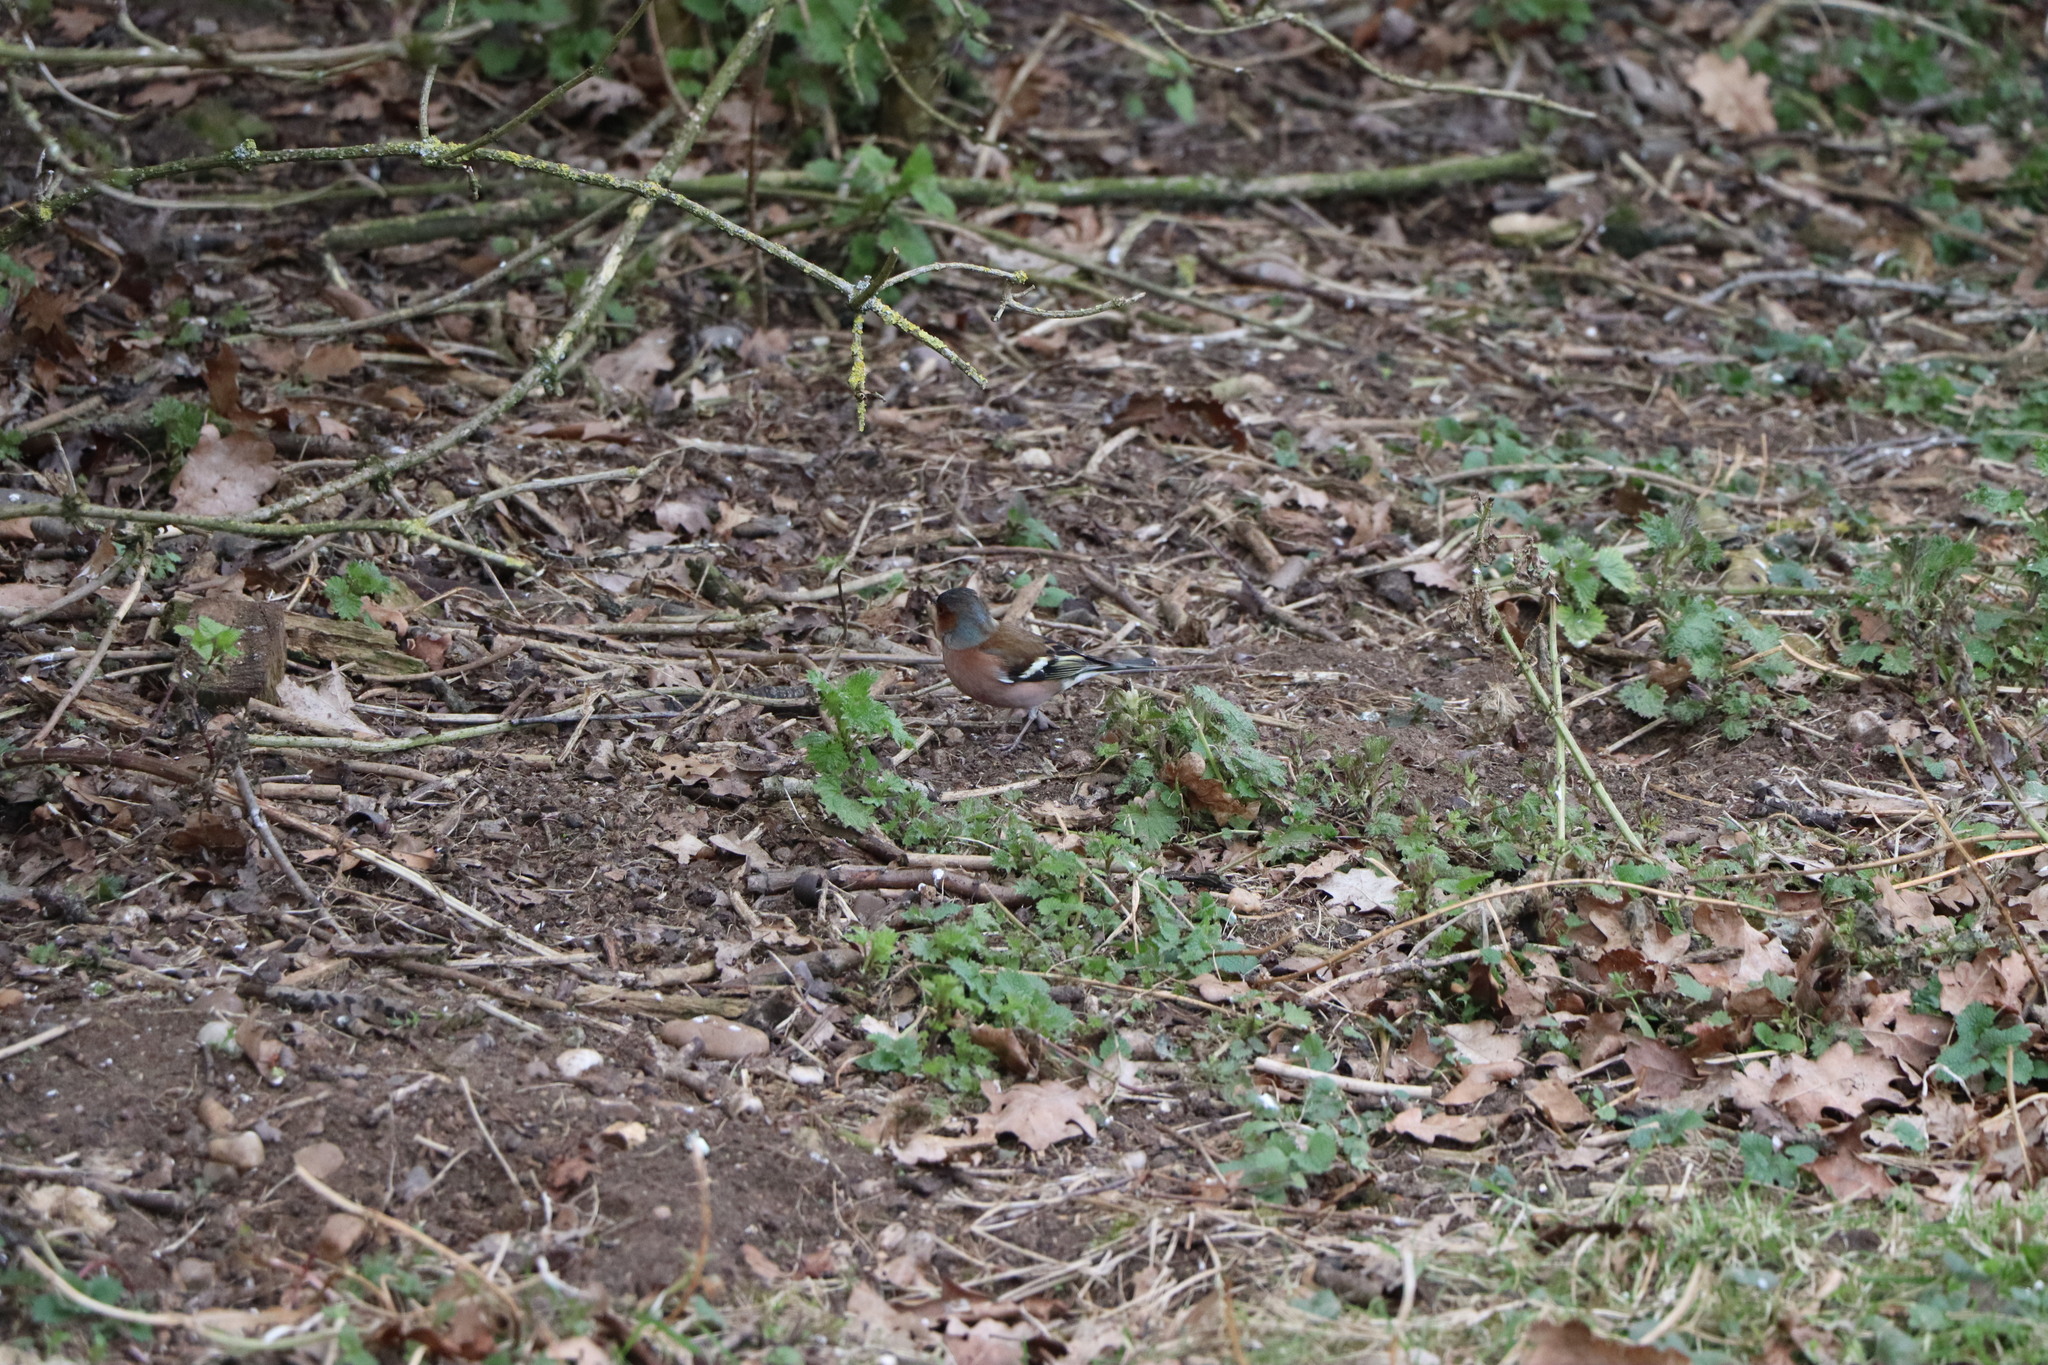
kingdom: Animalia
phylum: Chordata
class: Aves
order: Passeriformes
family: Fringillidae
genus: Fringilla
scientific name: Fringilla coelebs
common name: Common chaffinch
